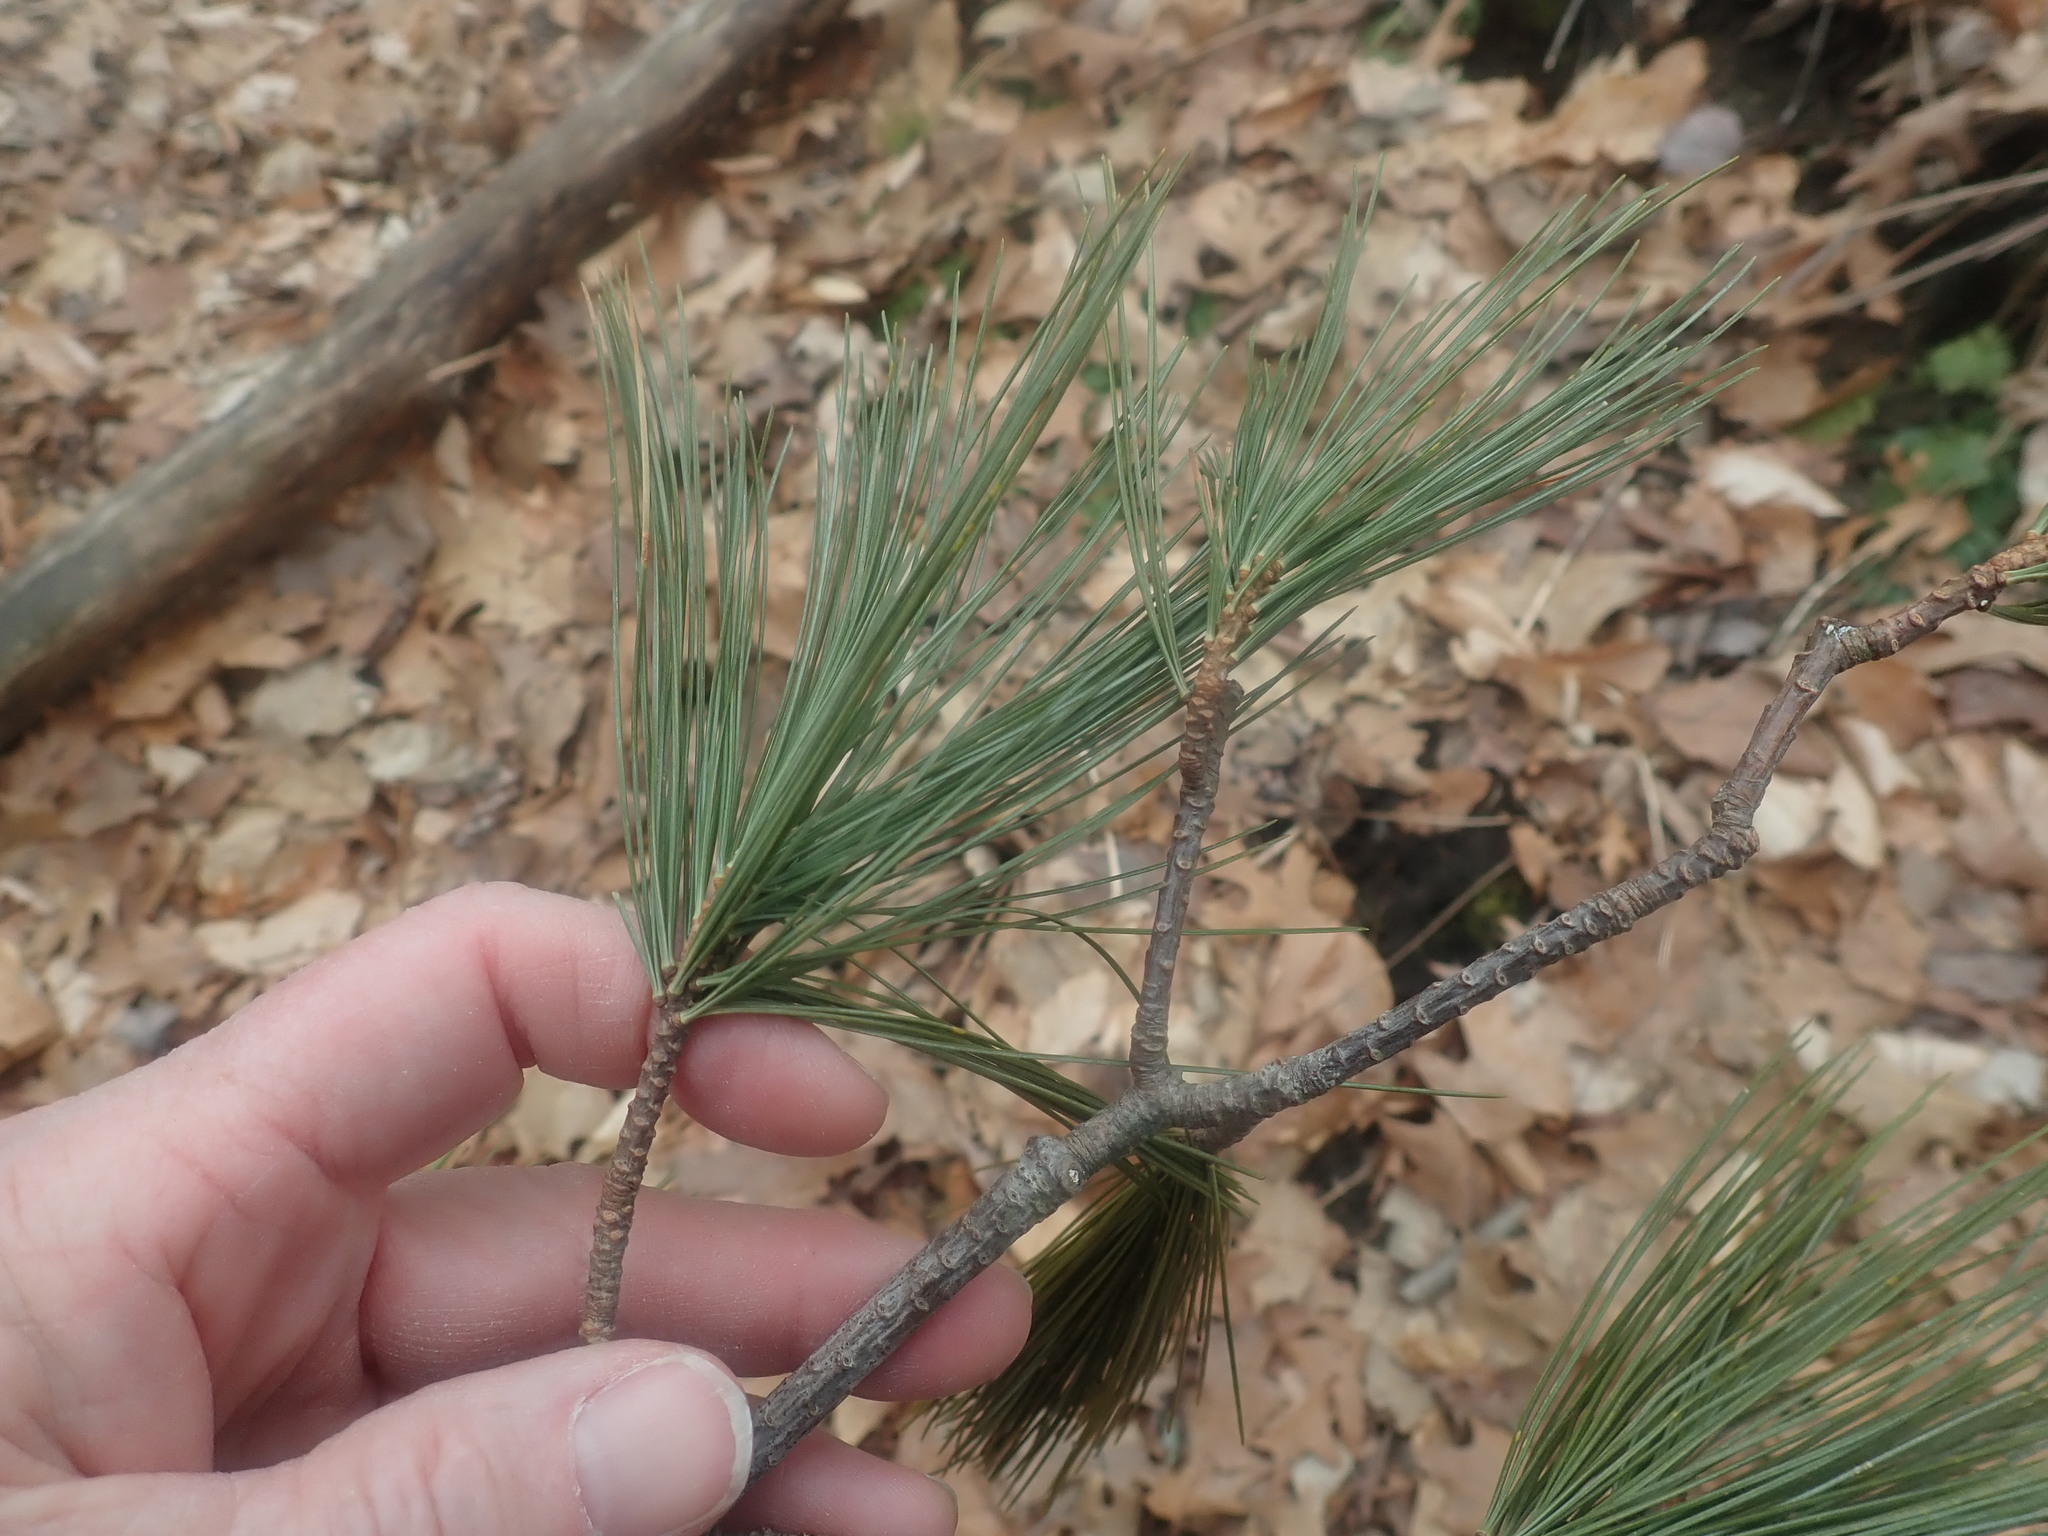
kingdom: Plantae
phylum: Tracheophyta
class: Pinopsida
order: Pinales
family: Pinaceae
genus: Pinus
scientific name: Pinus strobus
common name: Weymouth pine
